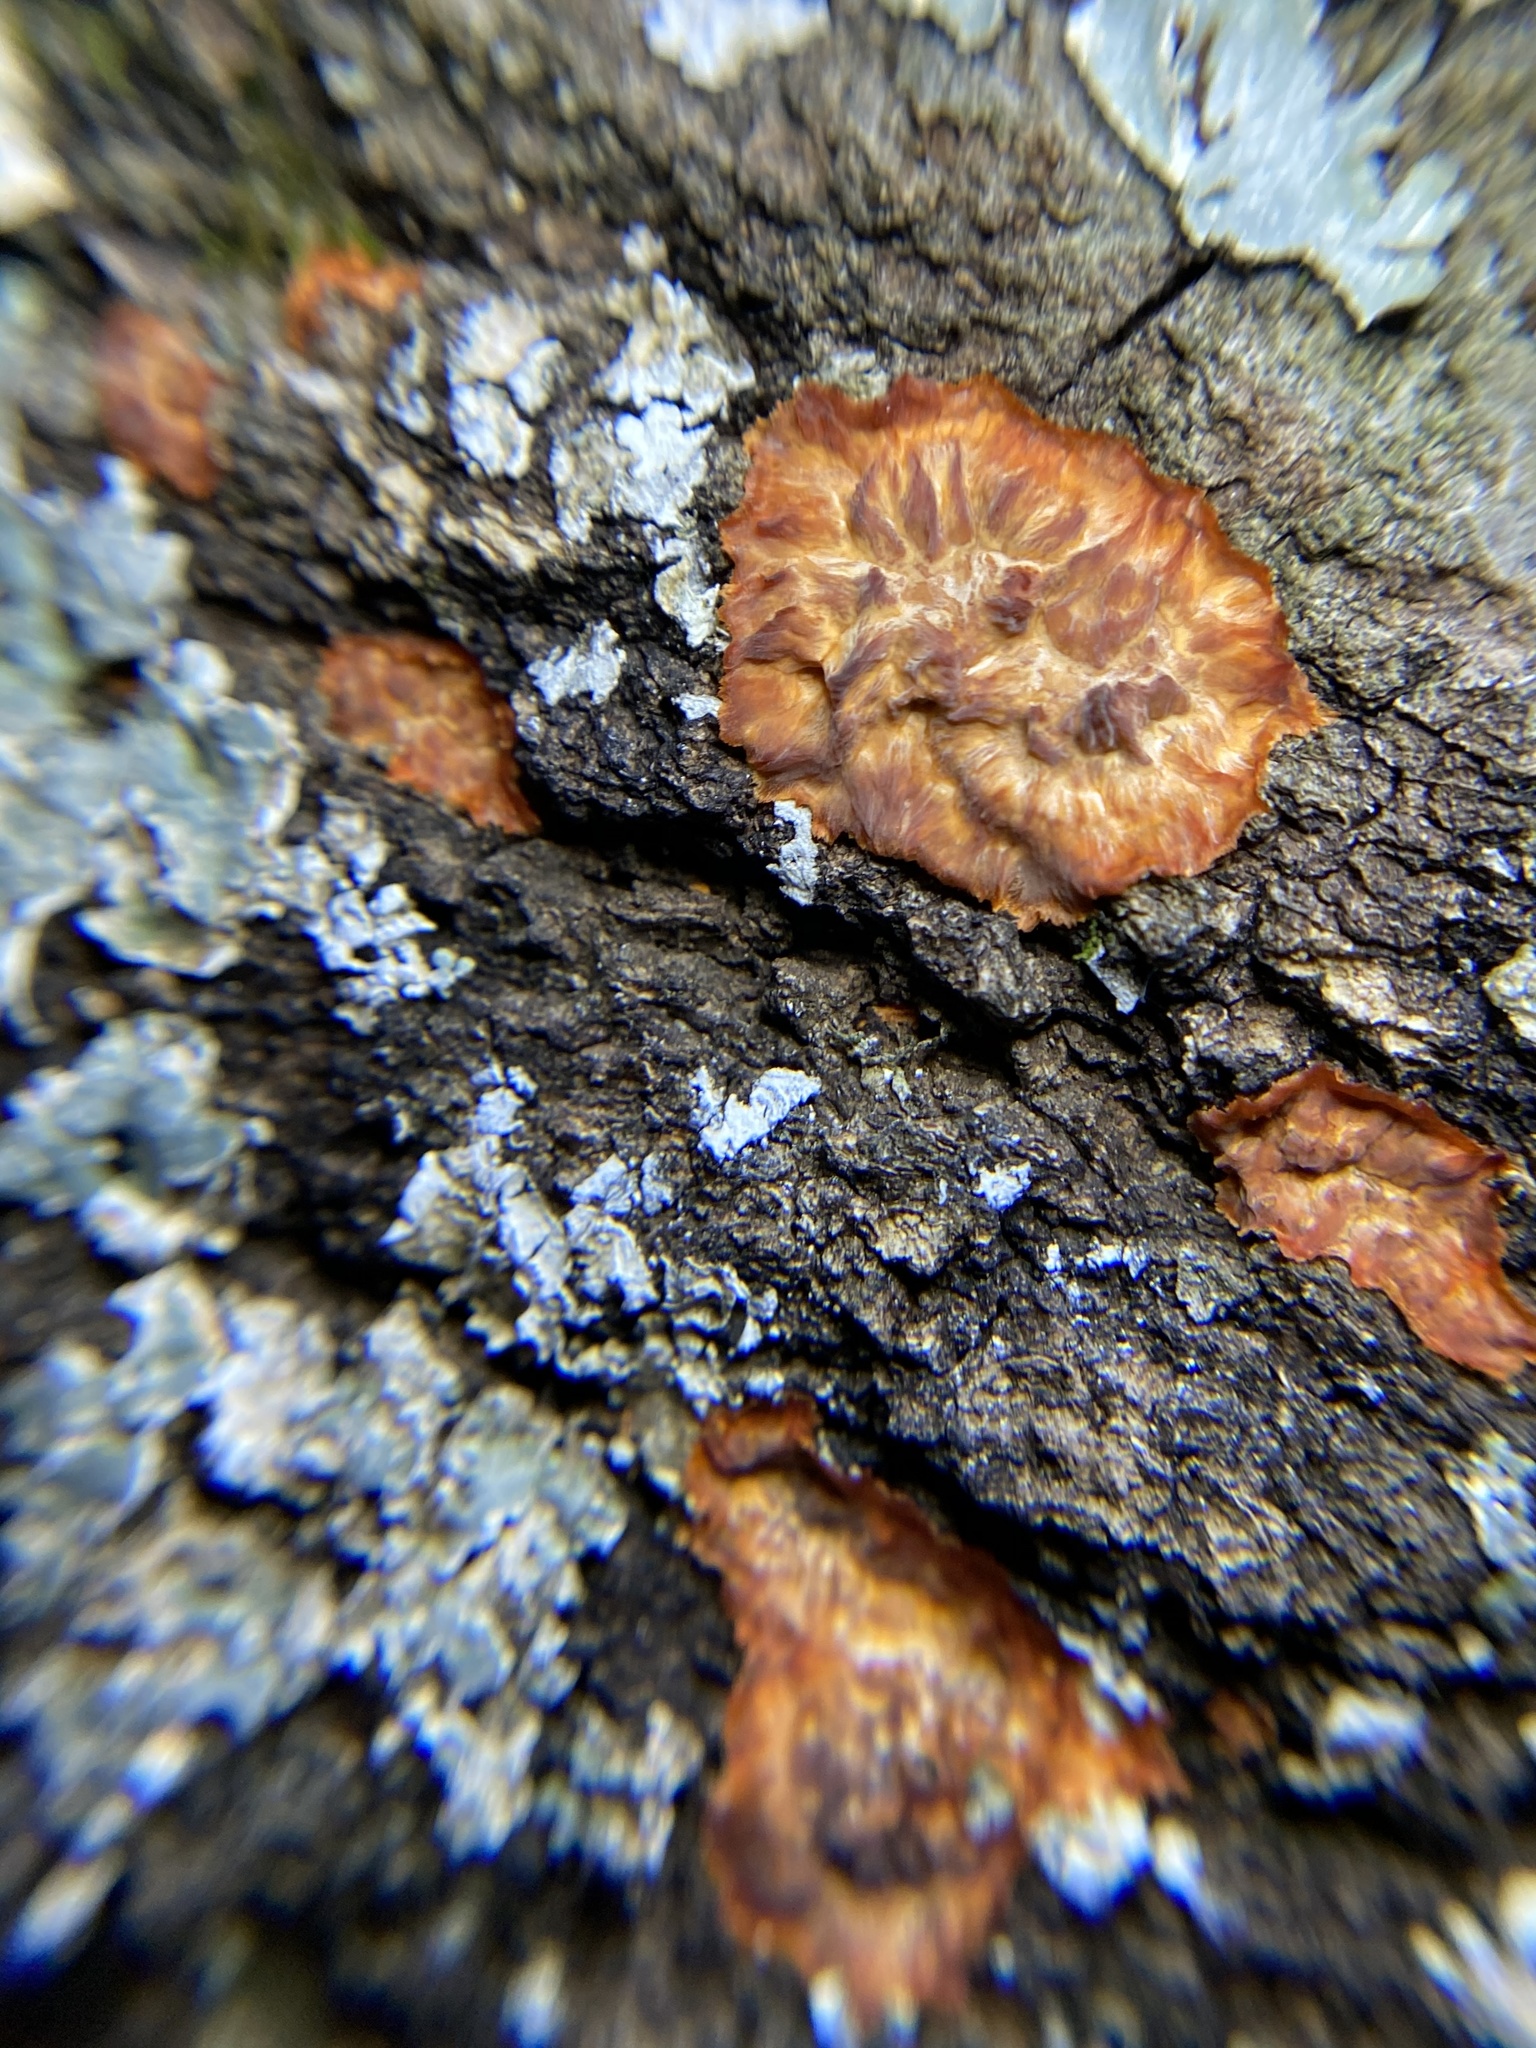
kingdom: Fungi
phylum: Basidiomycota
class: Agaricomycetes
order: Polyporales
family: Meruliaceae
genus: Phlebia
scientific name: Phlebia radiata
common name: Wrinkled crust
